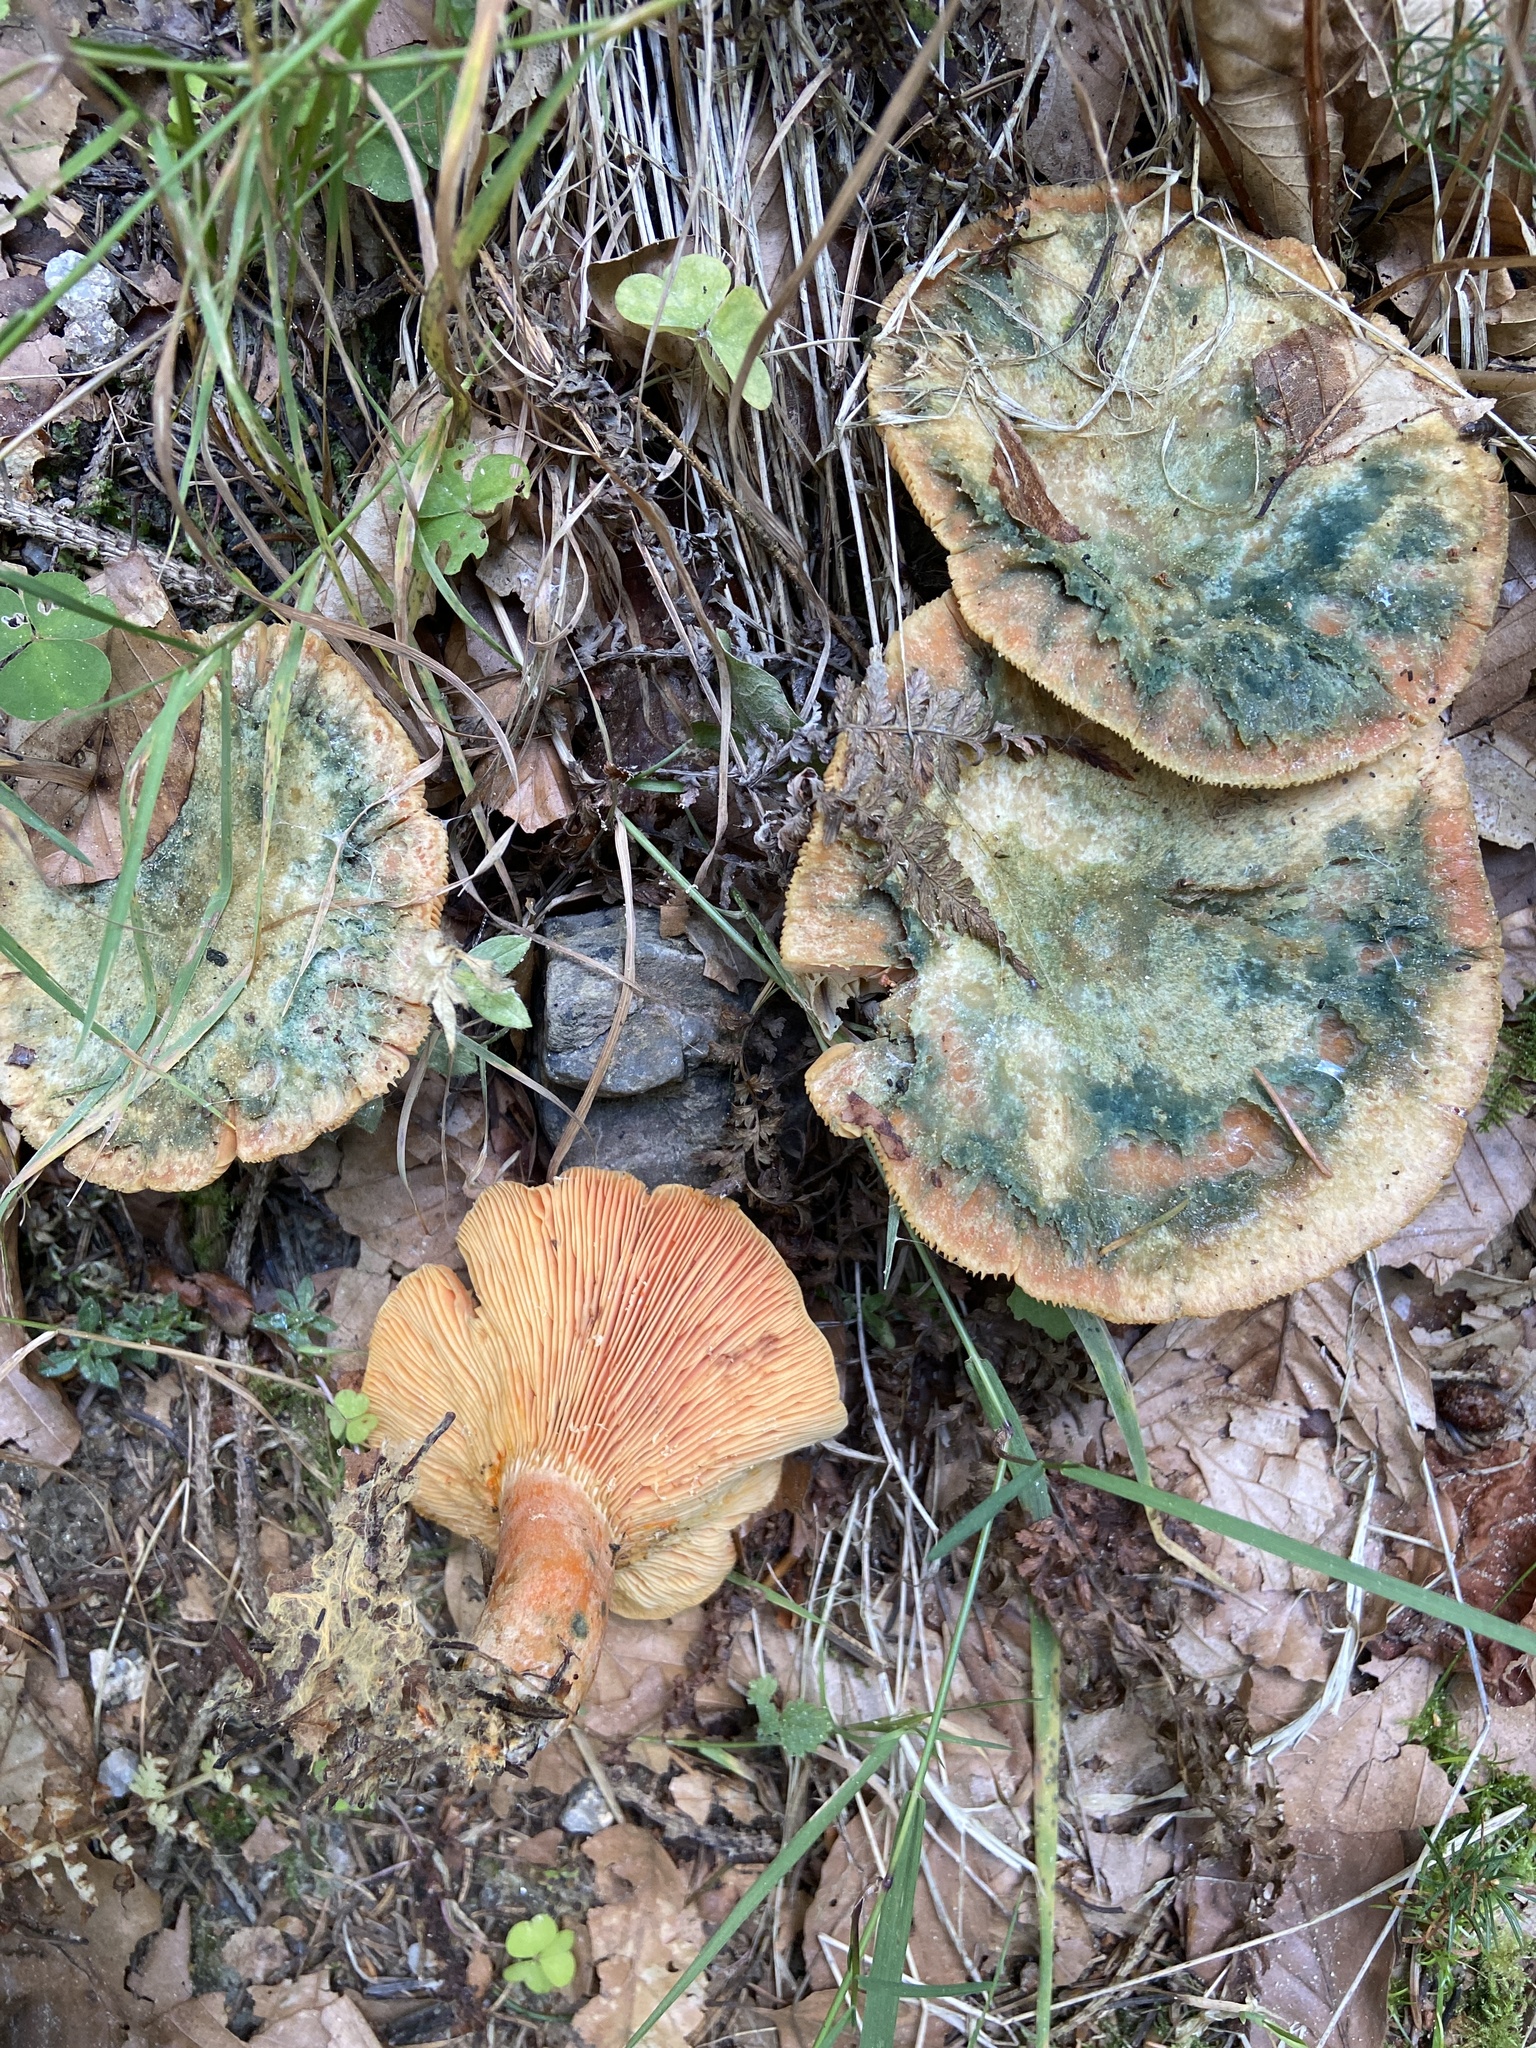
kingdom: Fungi
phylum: Basidiomycota
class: Agaricomycetes
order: Russulales
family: Russulaceae
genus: Lactarius
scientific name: Lactarius deterrimus
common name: False saffron milkcap
